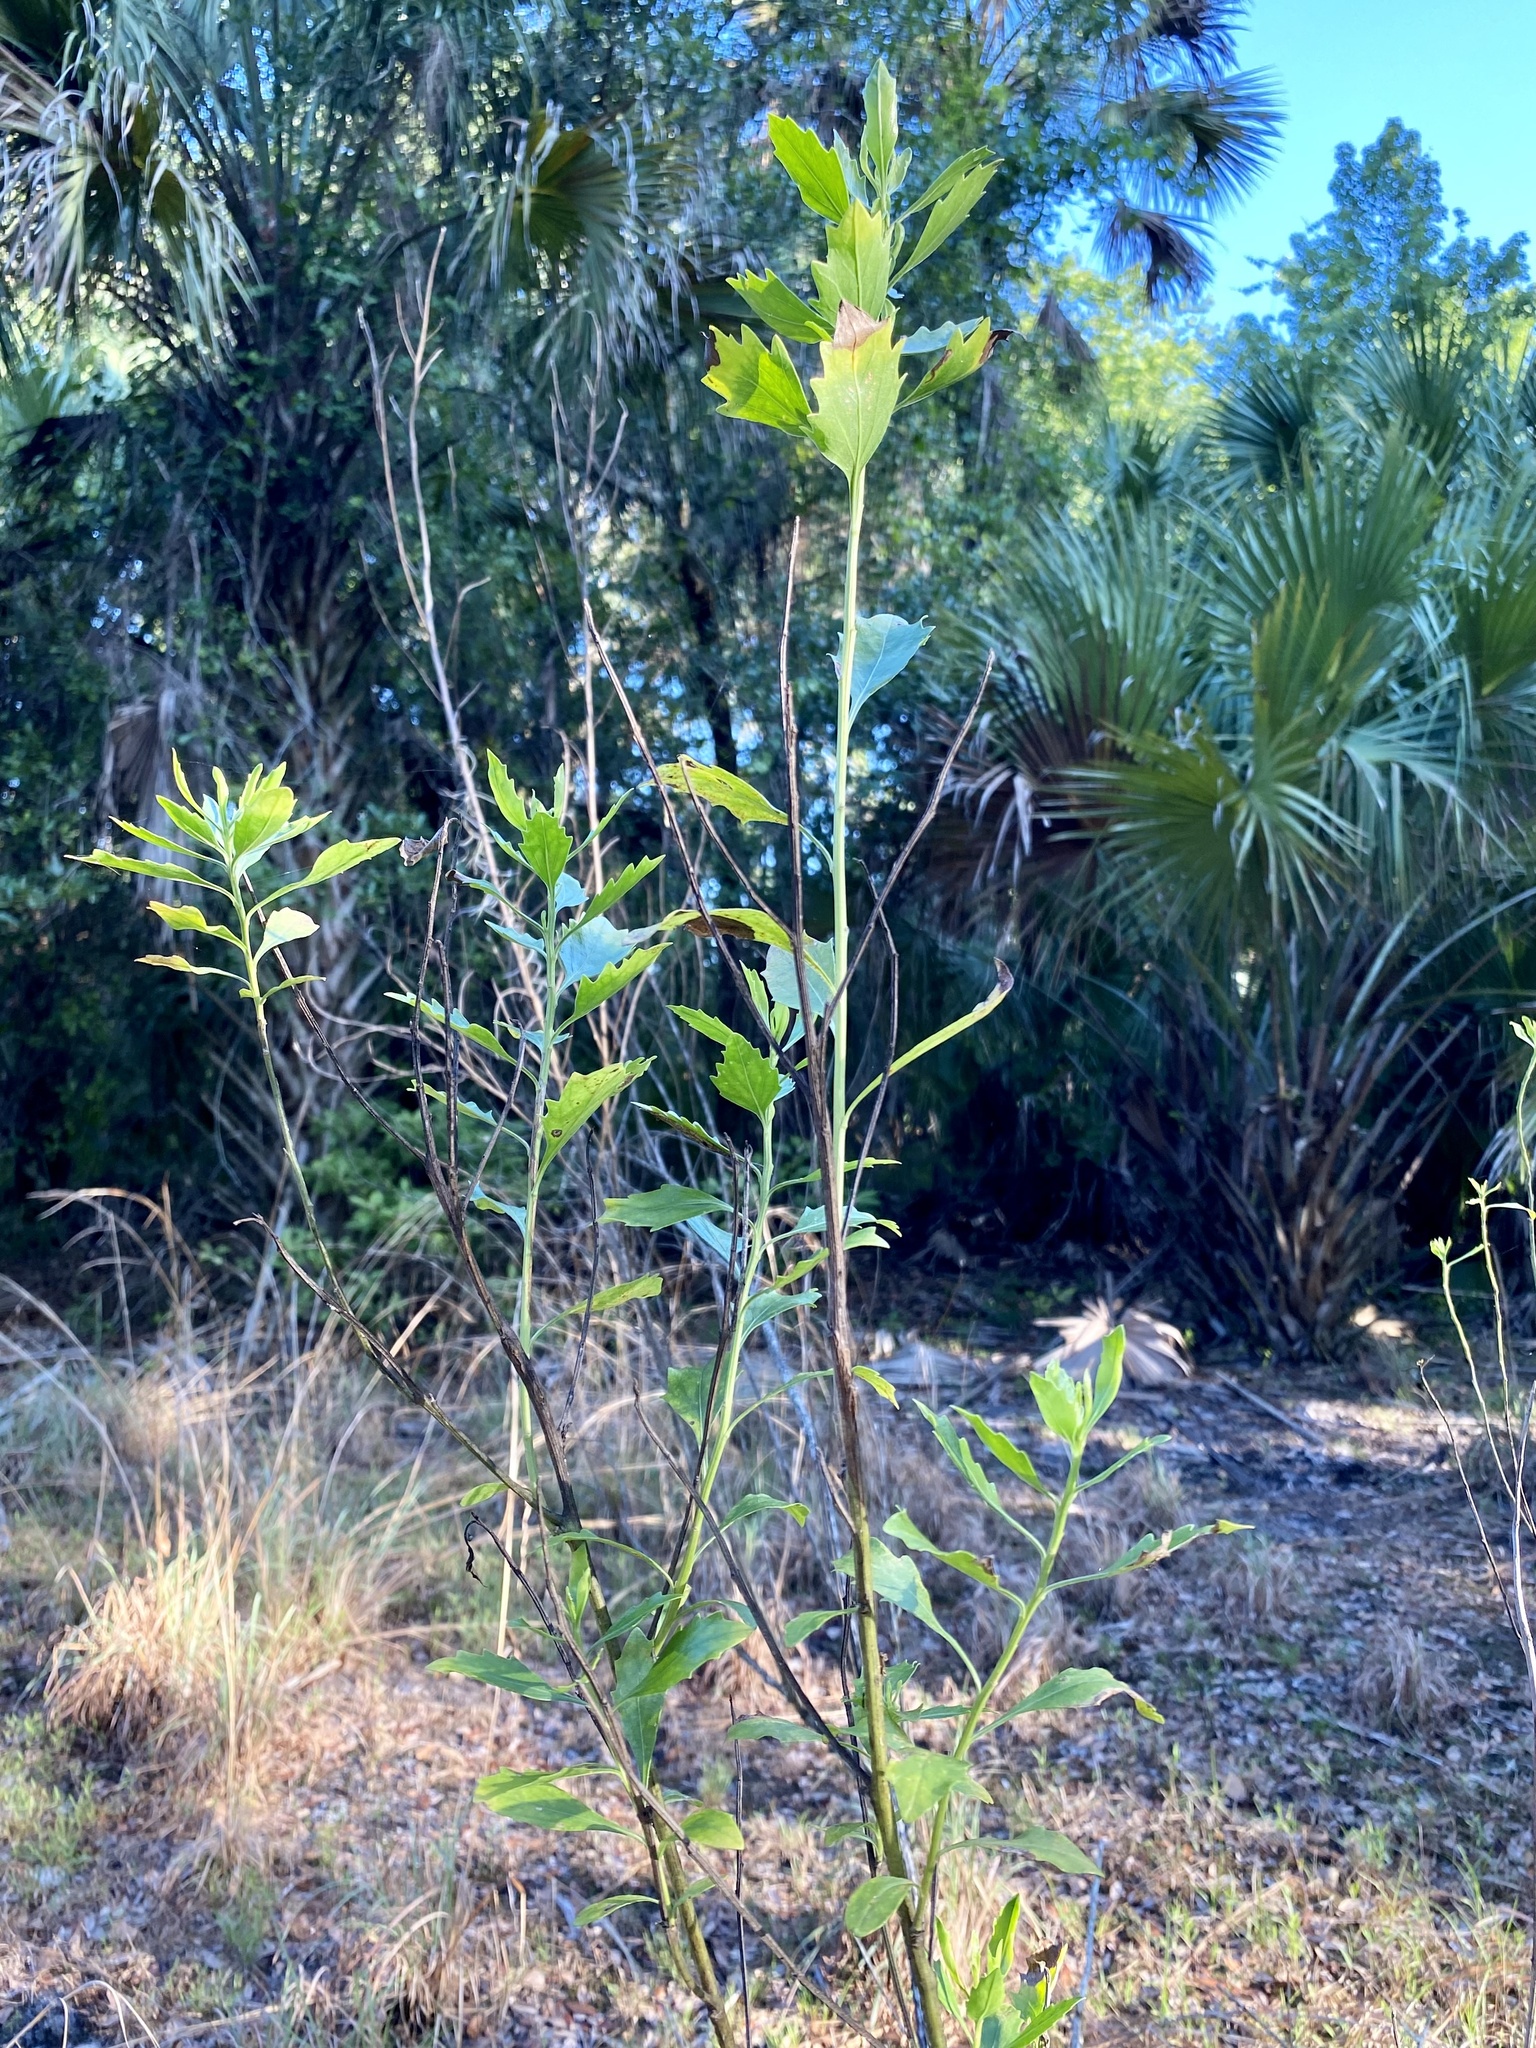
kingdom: Plantae
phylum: Tracheophyta
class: Magnoliopsida
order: Asterales
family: Asteraceae
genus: Baccharis
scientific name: Baccharis halimifolia
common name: Eastern baccharis
